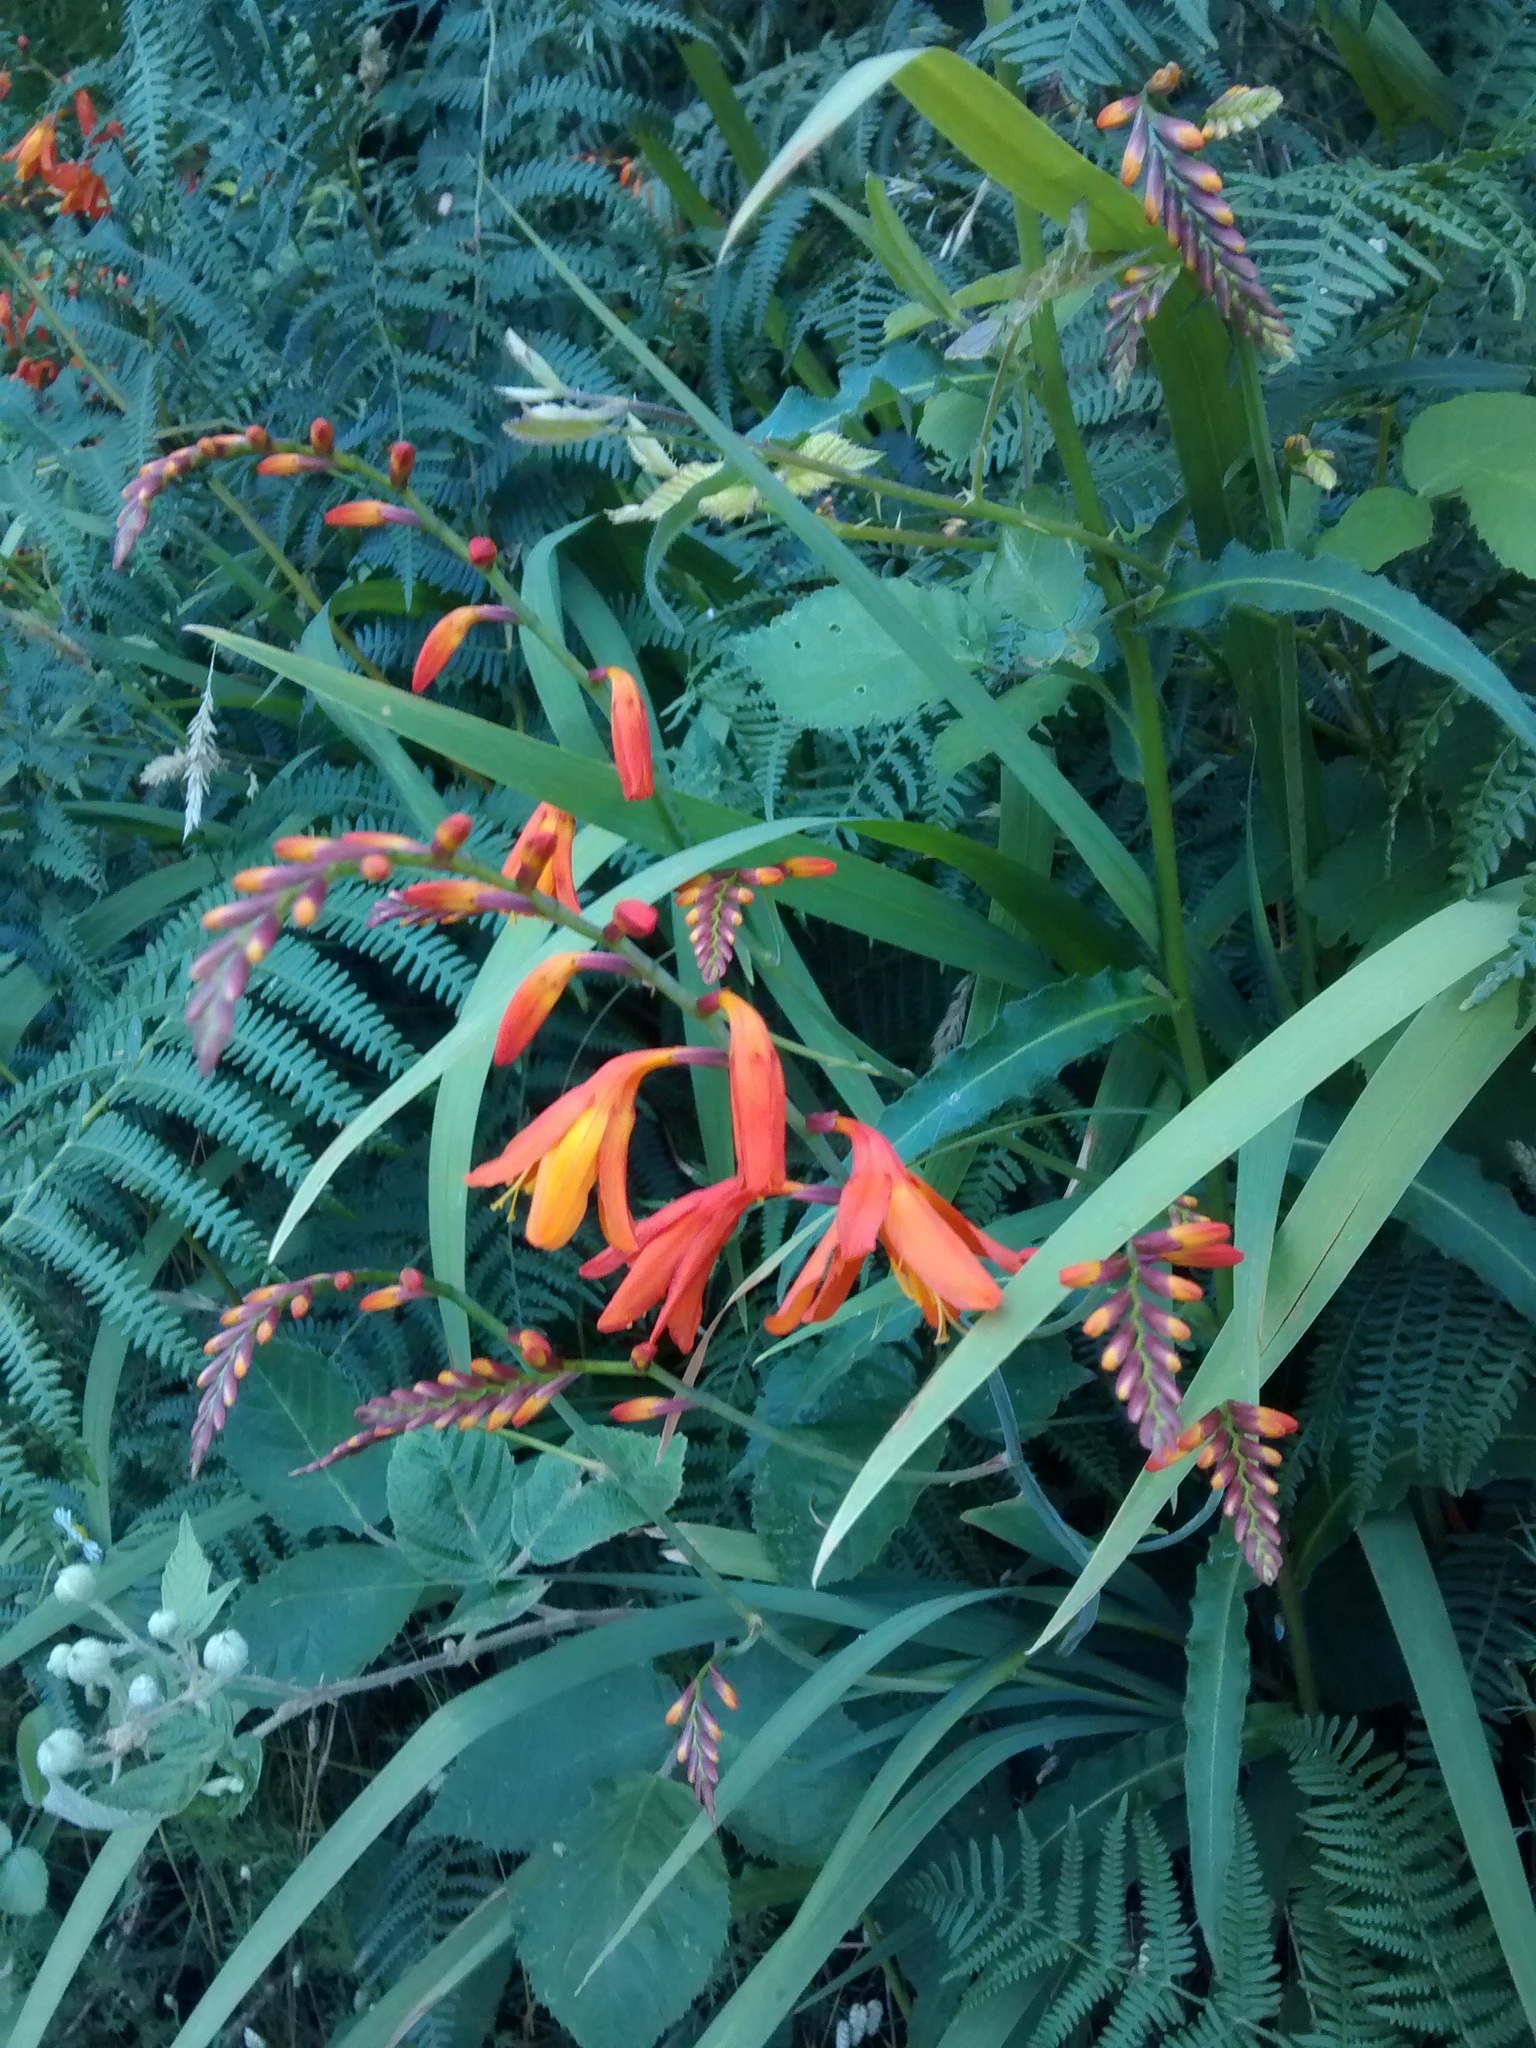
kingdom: Plantae
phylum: Tracheophyta
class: Liliopsida
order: Asparagales
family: Iridaceae
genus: Crocosmia
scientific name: Crocosmia crocosmiiflora
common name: Montbretia
